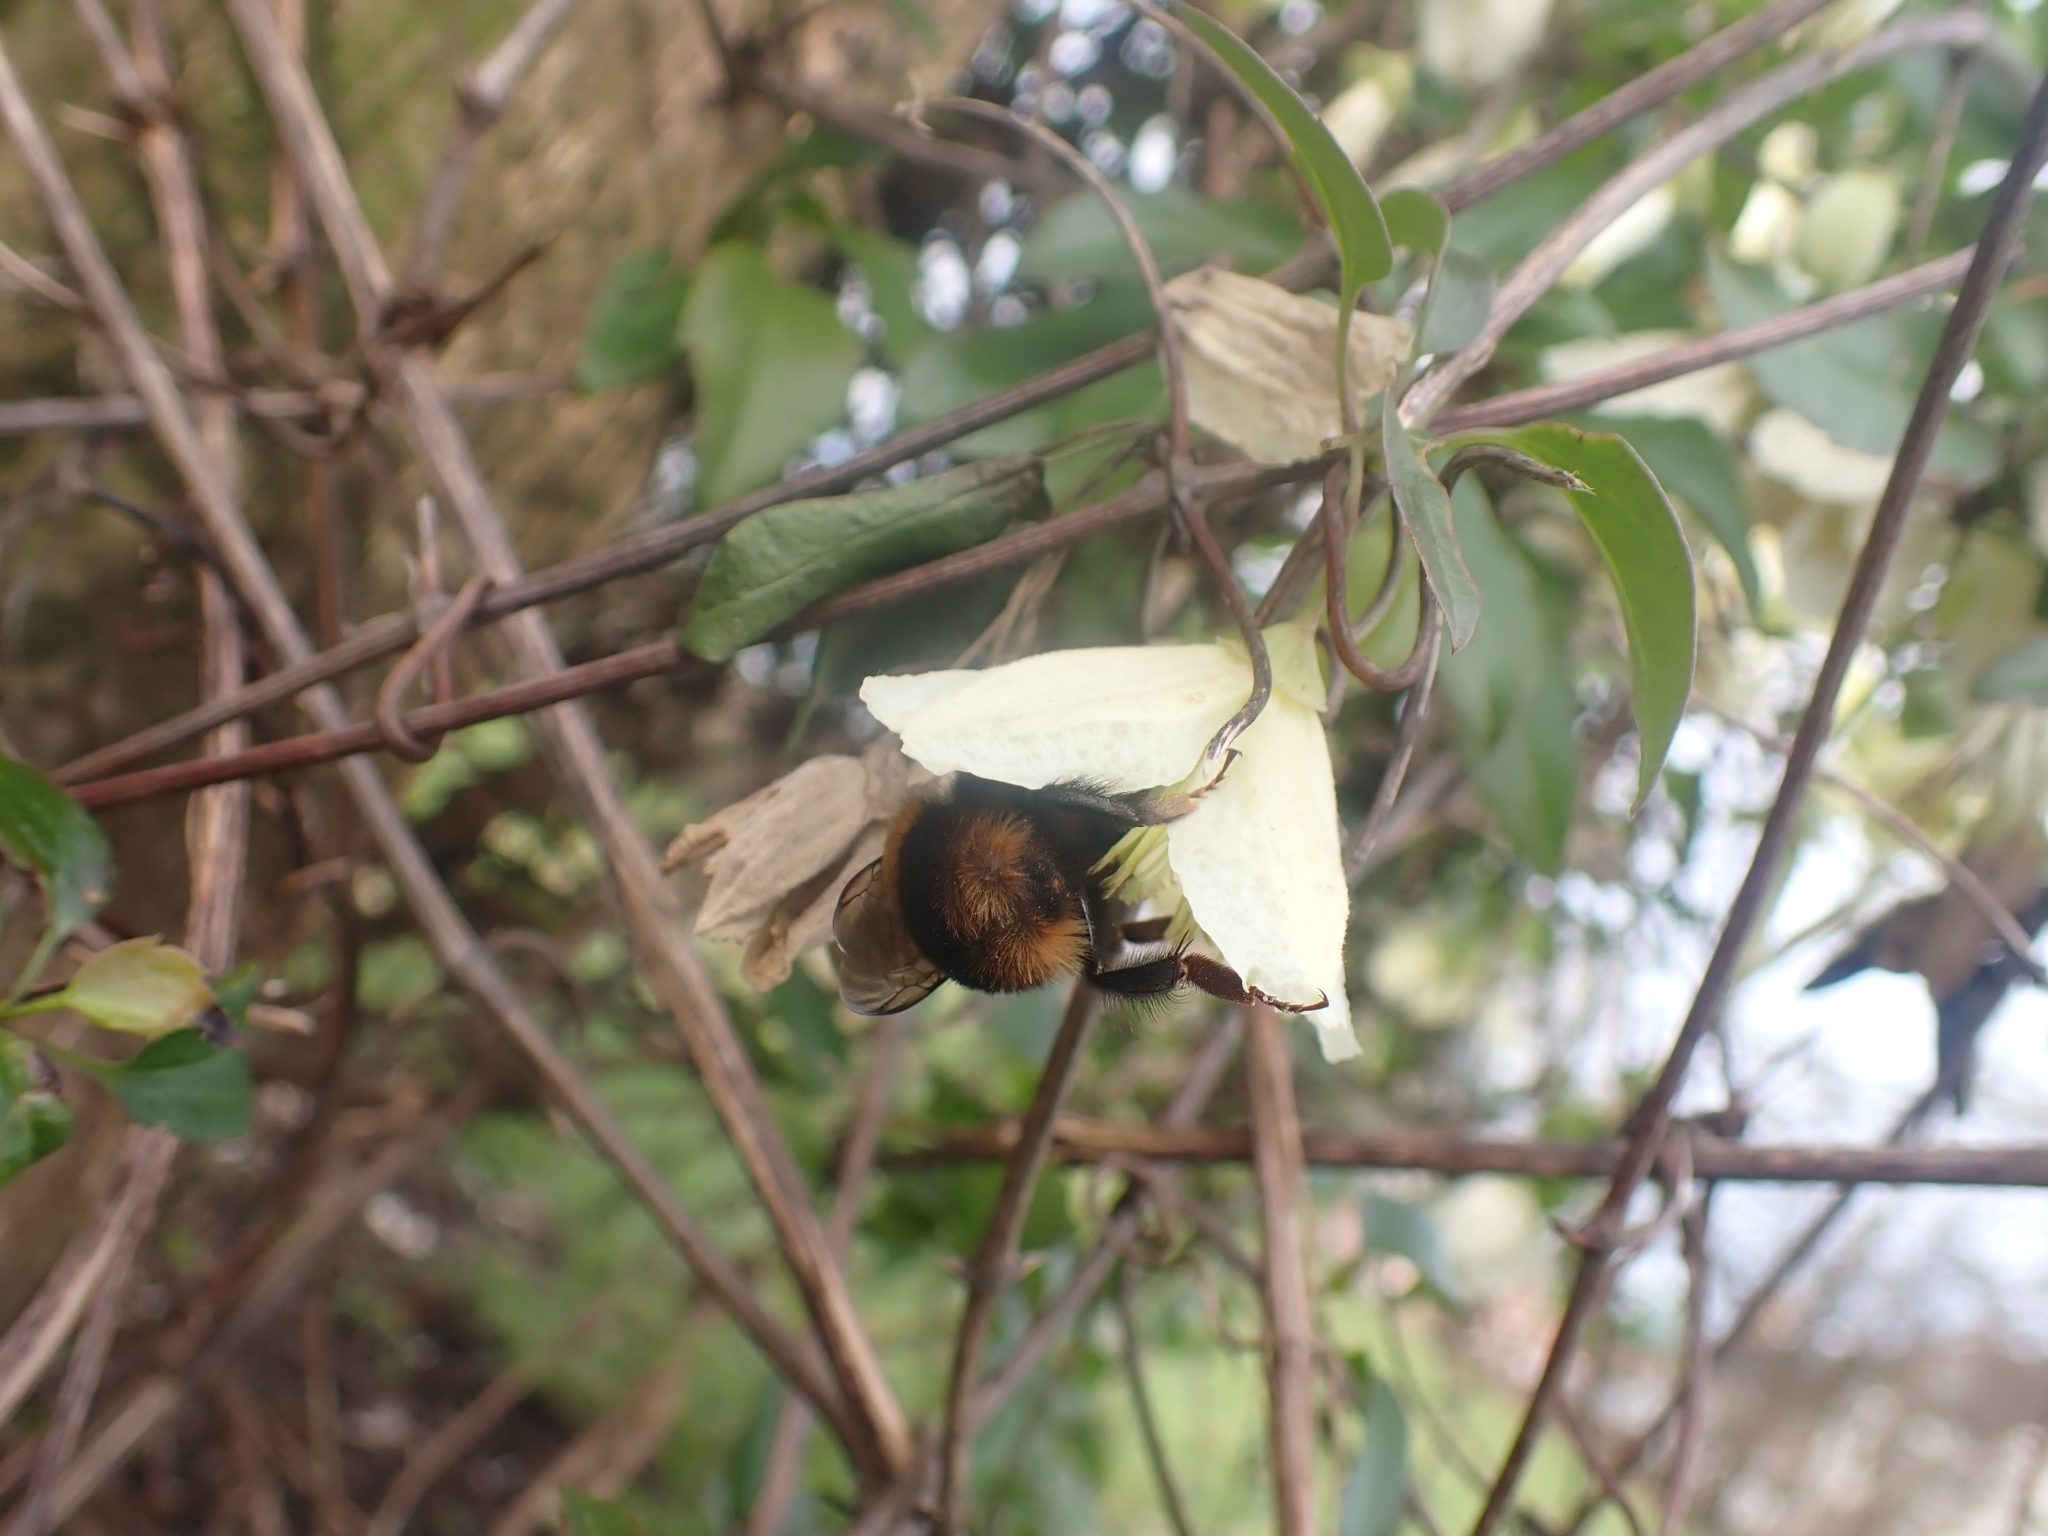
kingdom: Animalia
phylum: Arthropoda
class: Insecta
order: Hymenoptera
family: Apidae
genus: Bombus
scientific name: Bombus terrestris
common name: Buff-tailed bumblebee
